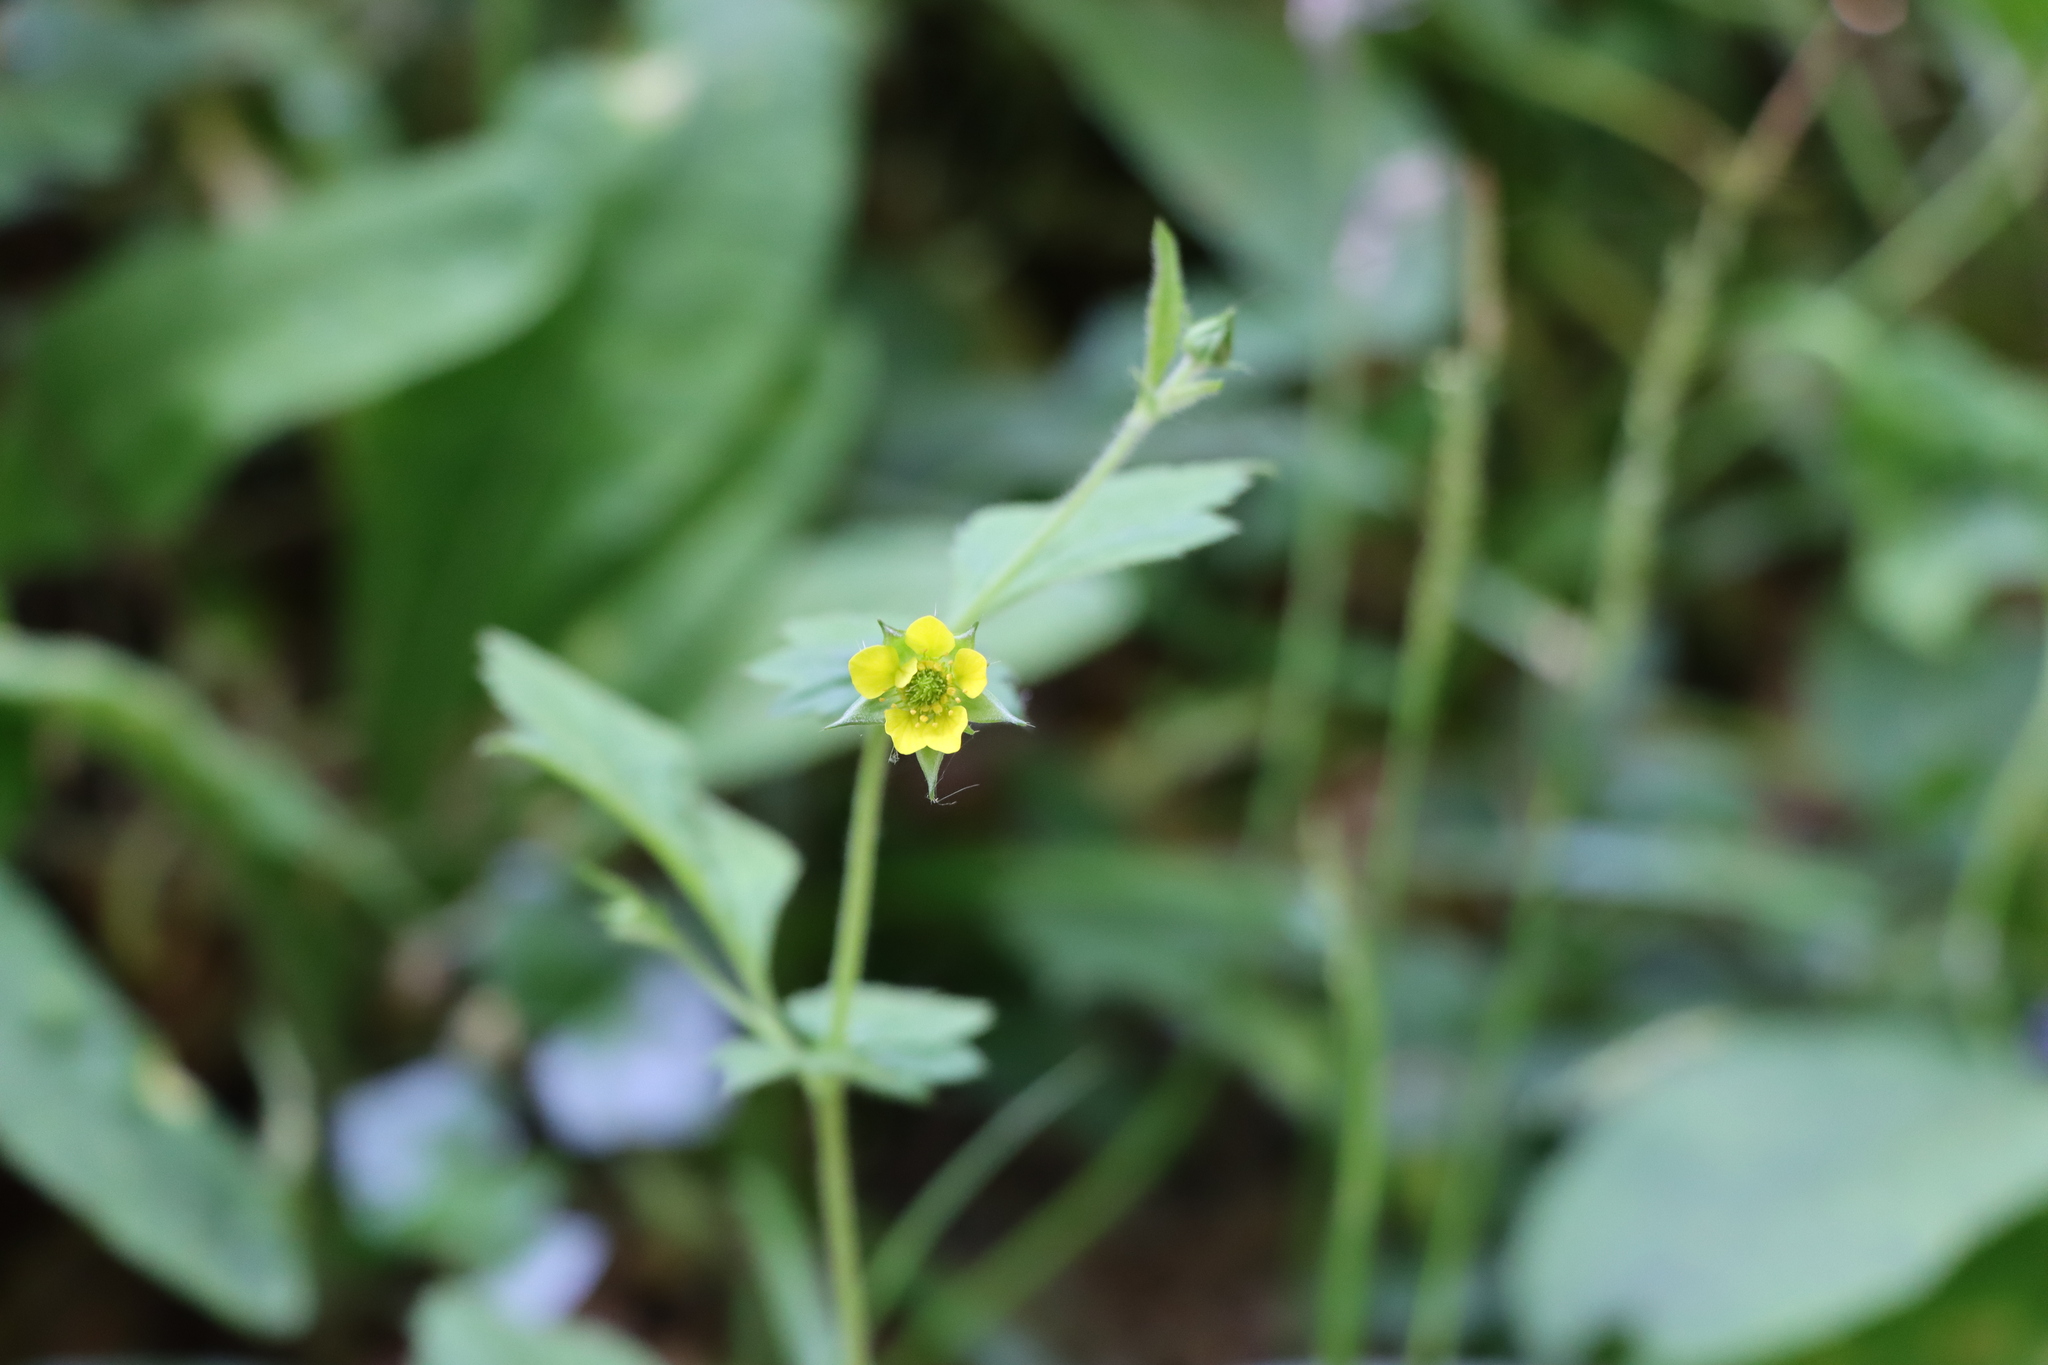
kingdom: Plantae
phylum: Tracheophyta
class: Magnoliopsida
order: Rosales
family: Rosaceae
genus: Geum
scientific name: Geum urbanum
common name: Wood avens
